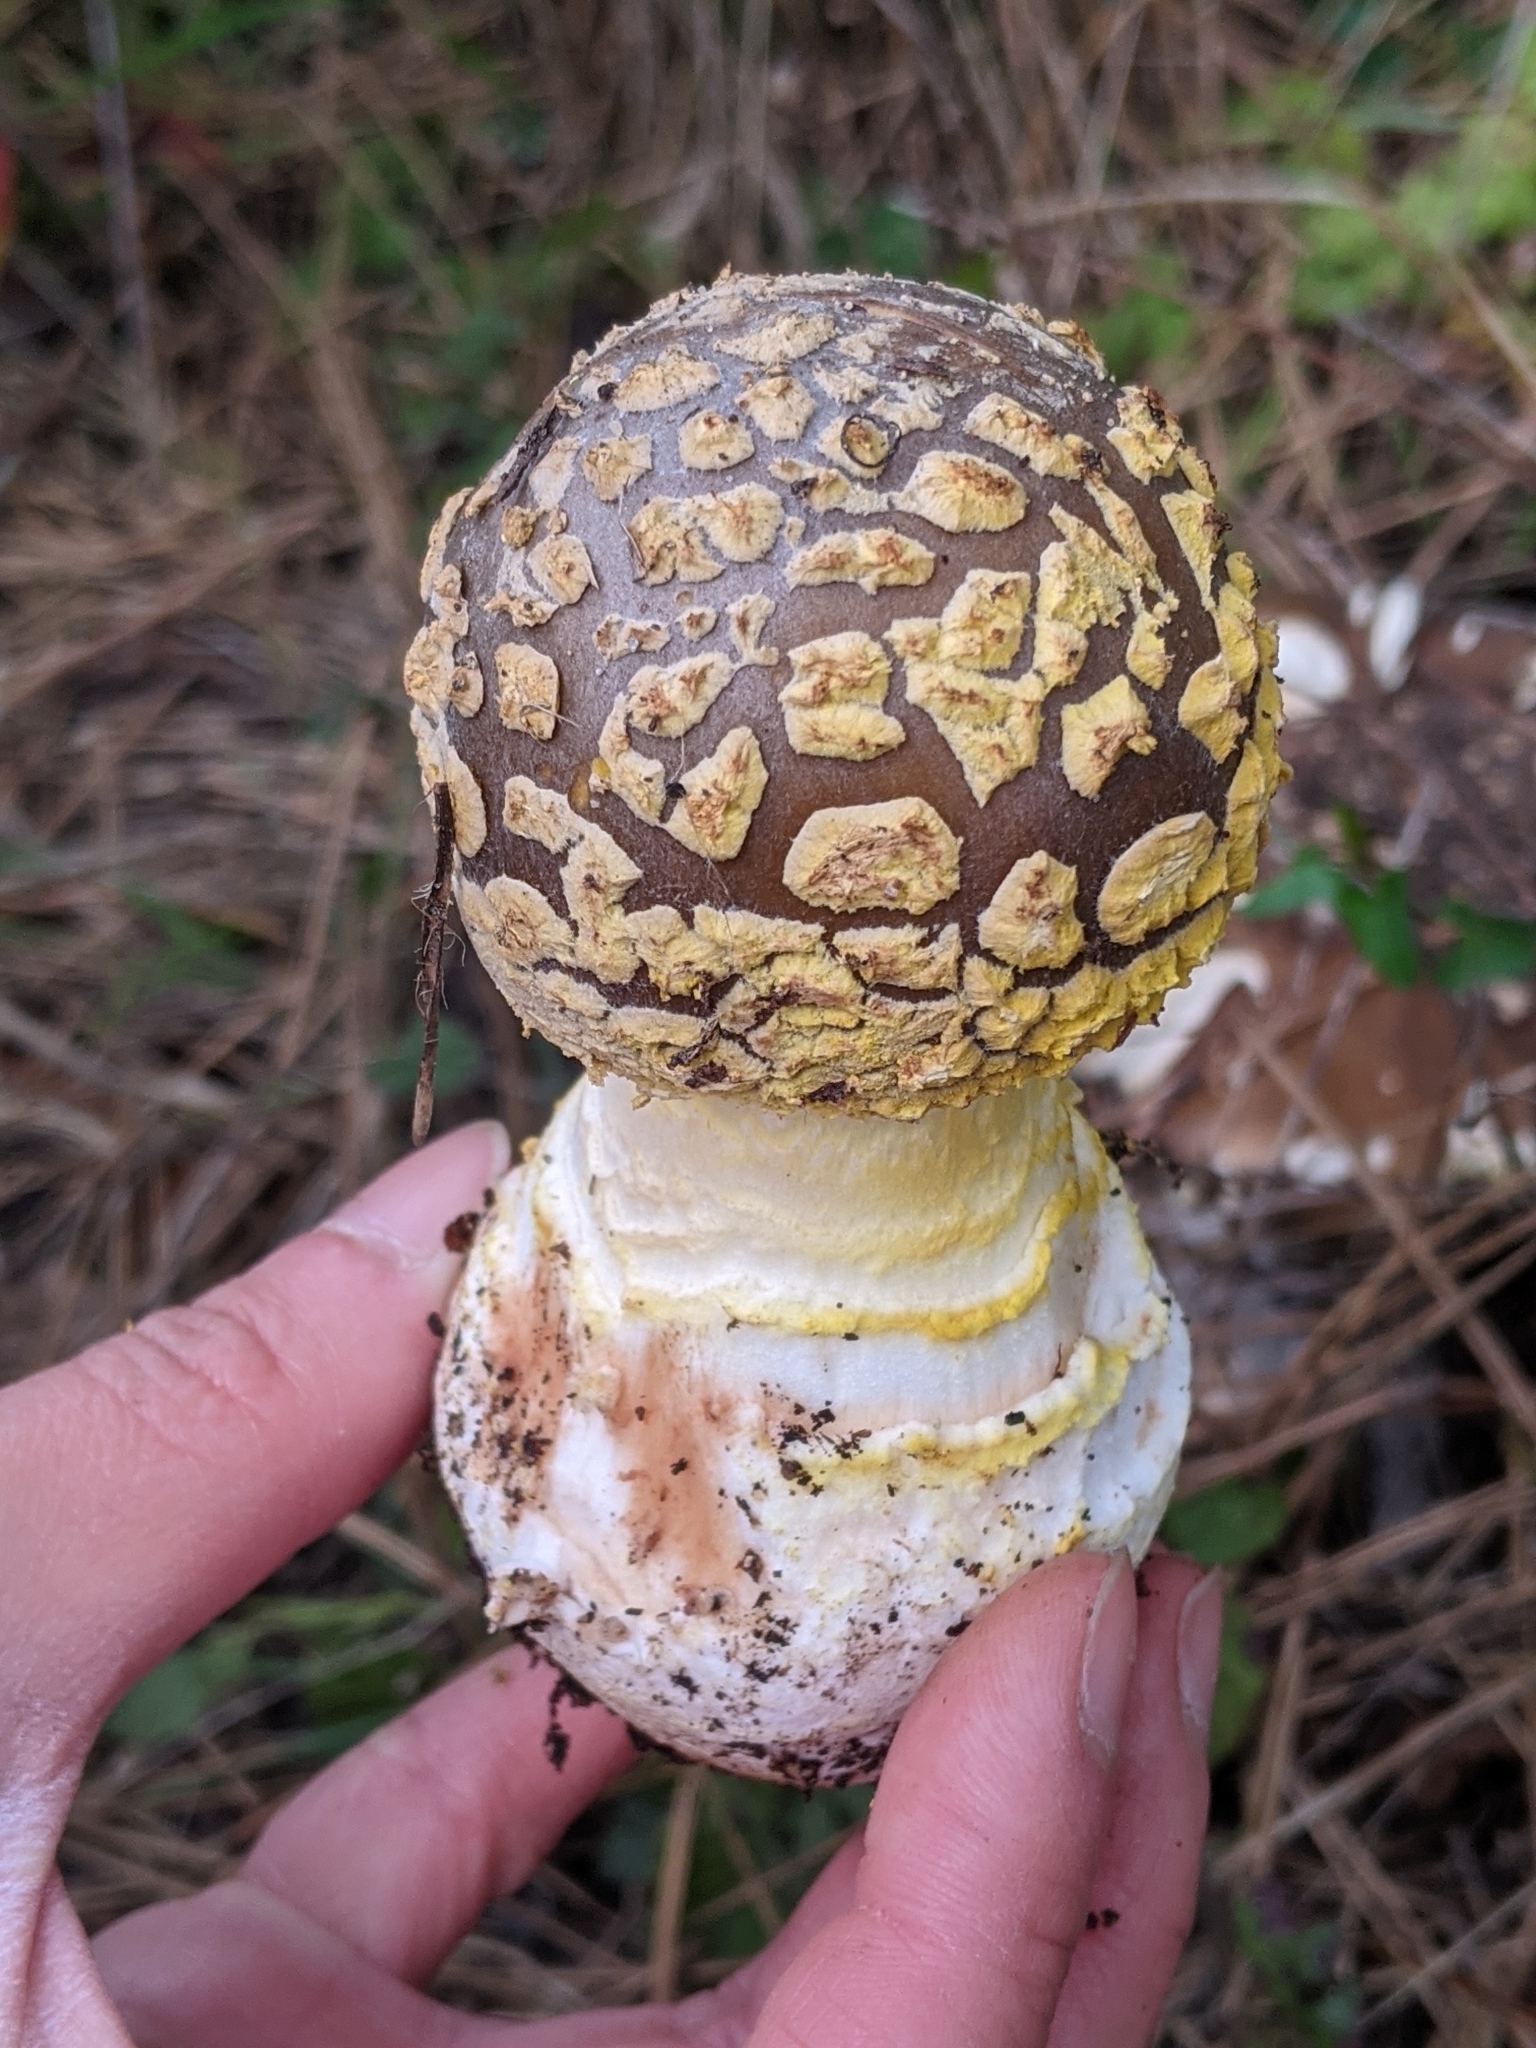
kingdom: Fungi
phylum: Basidiomycota
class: Agaricomycetes
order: Agaricales
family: Amanitaceae
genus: Amanita
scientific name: Amanita augusta
